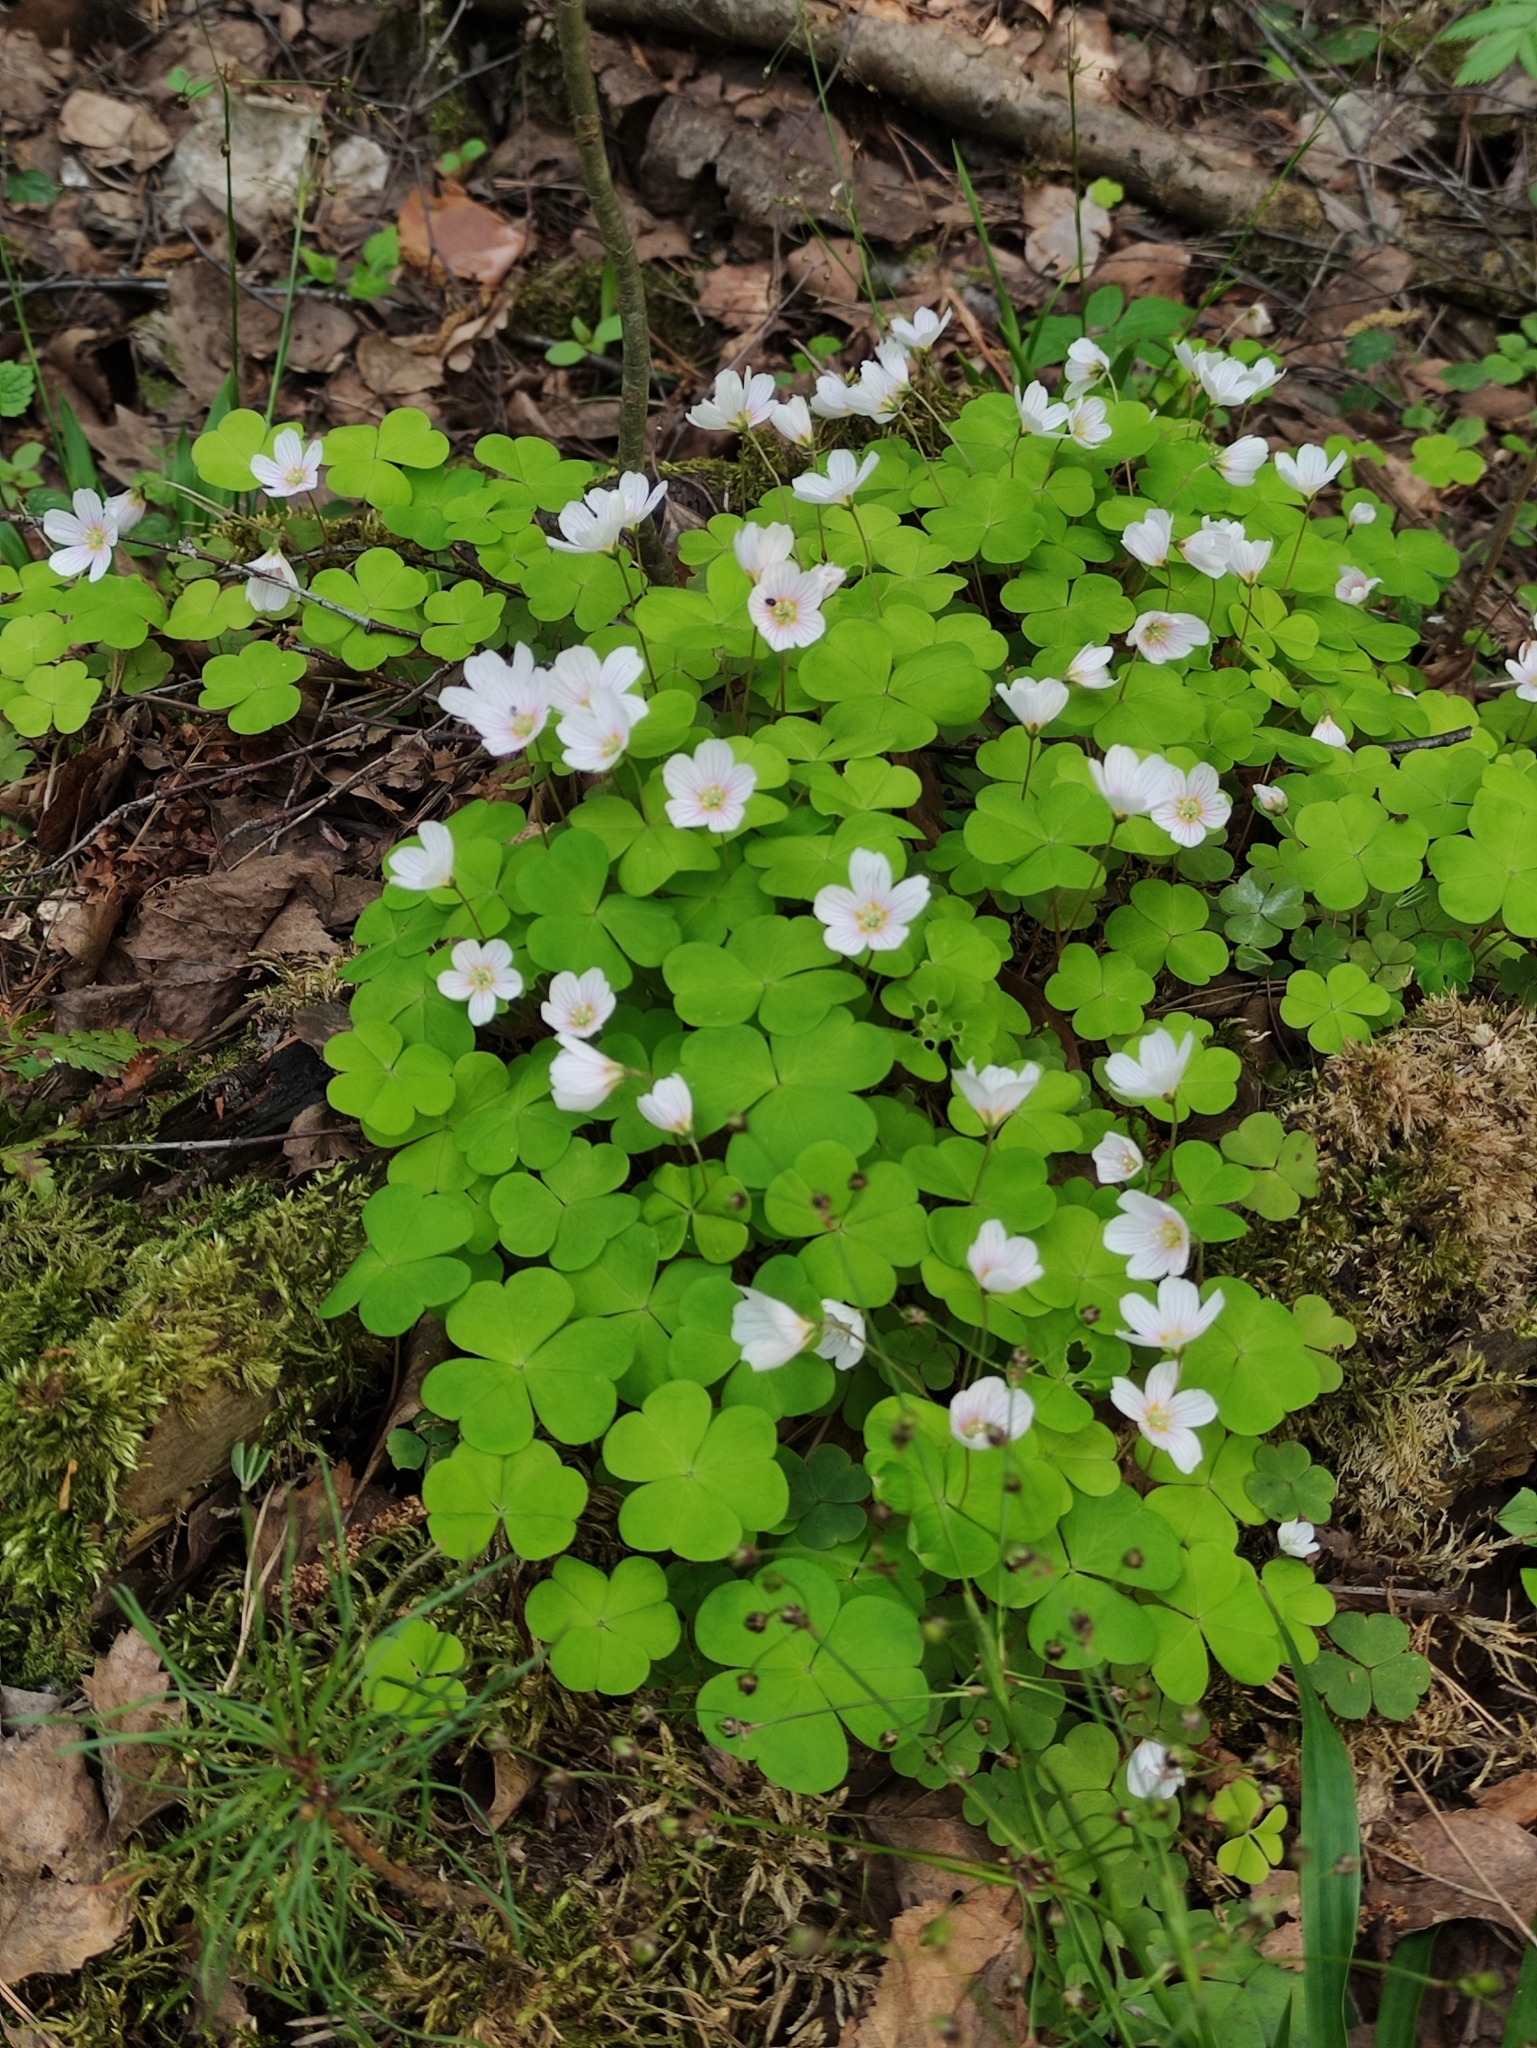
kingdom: Plantae
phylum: Tracheophyta
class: Magnoliopsida
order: Oxalidales
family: Oxalidaceae
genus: Oxalis
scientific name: Oxalis acetosella
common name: Wood-sorrel
